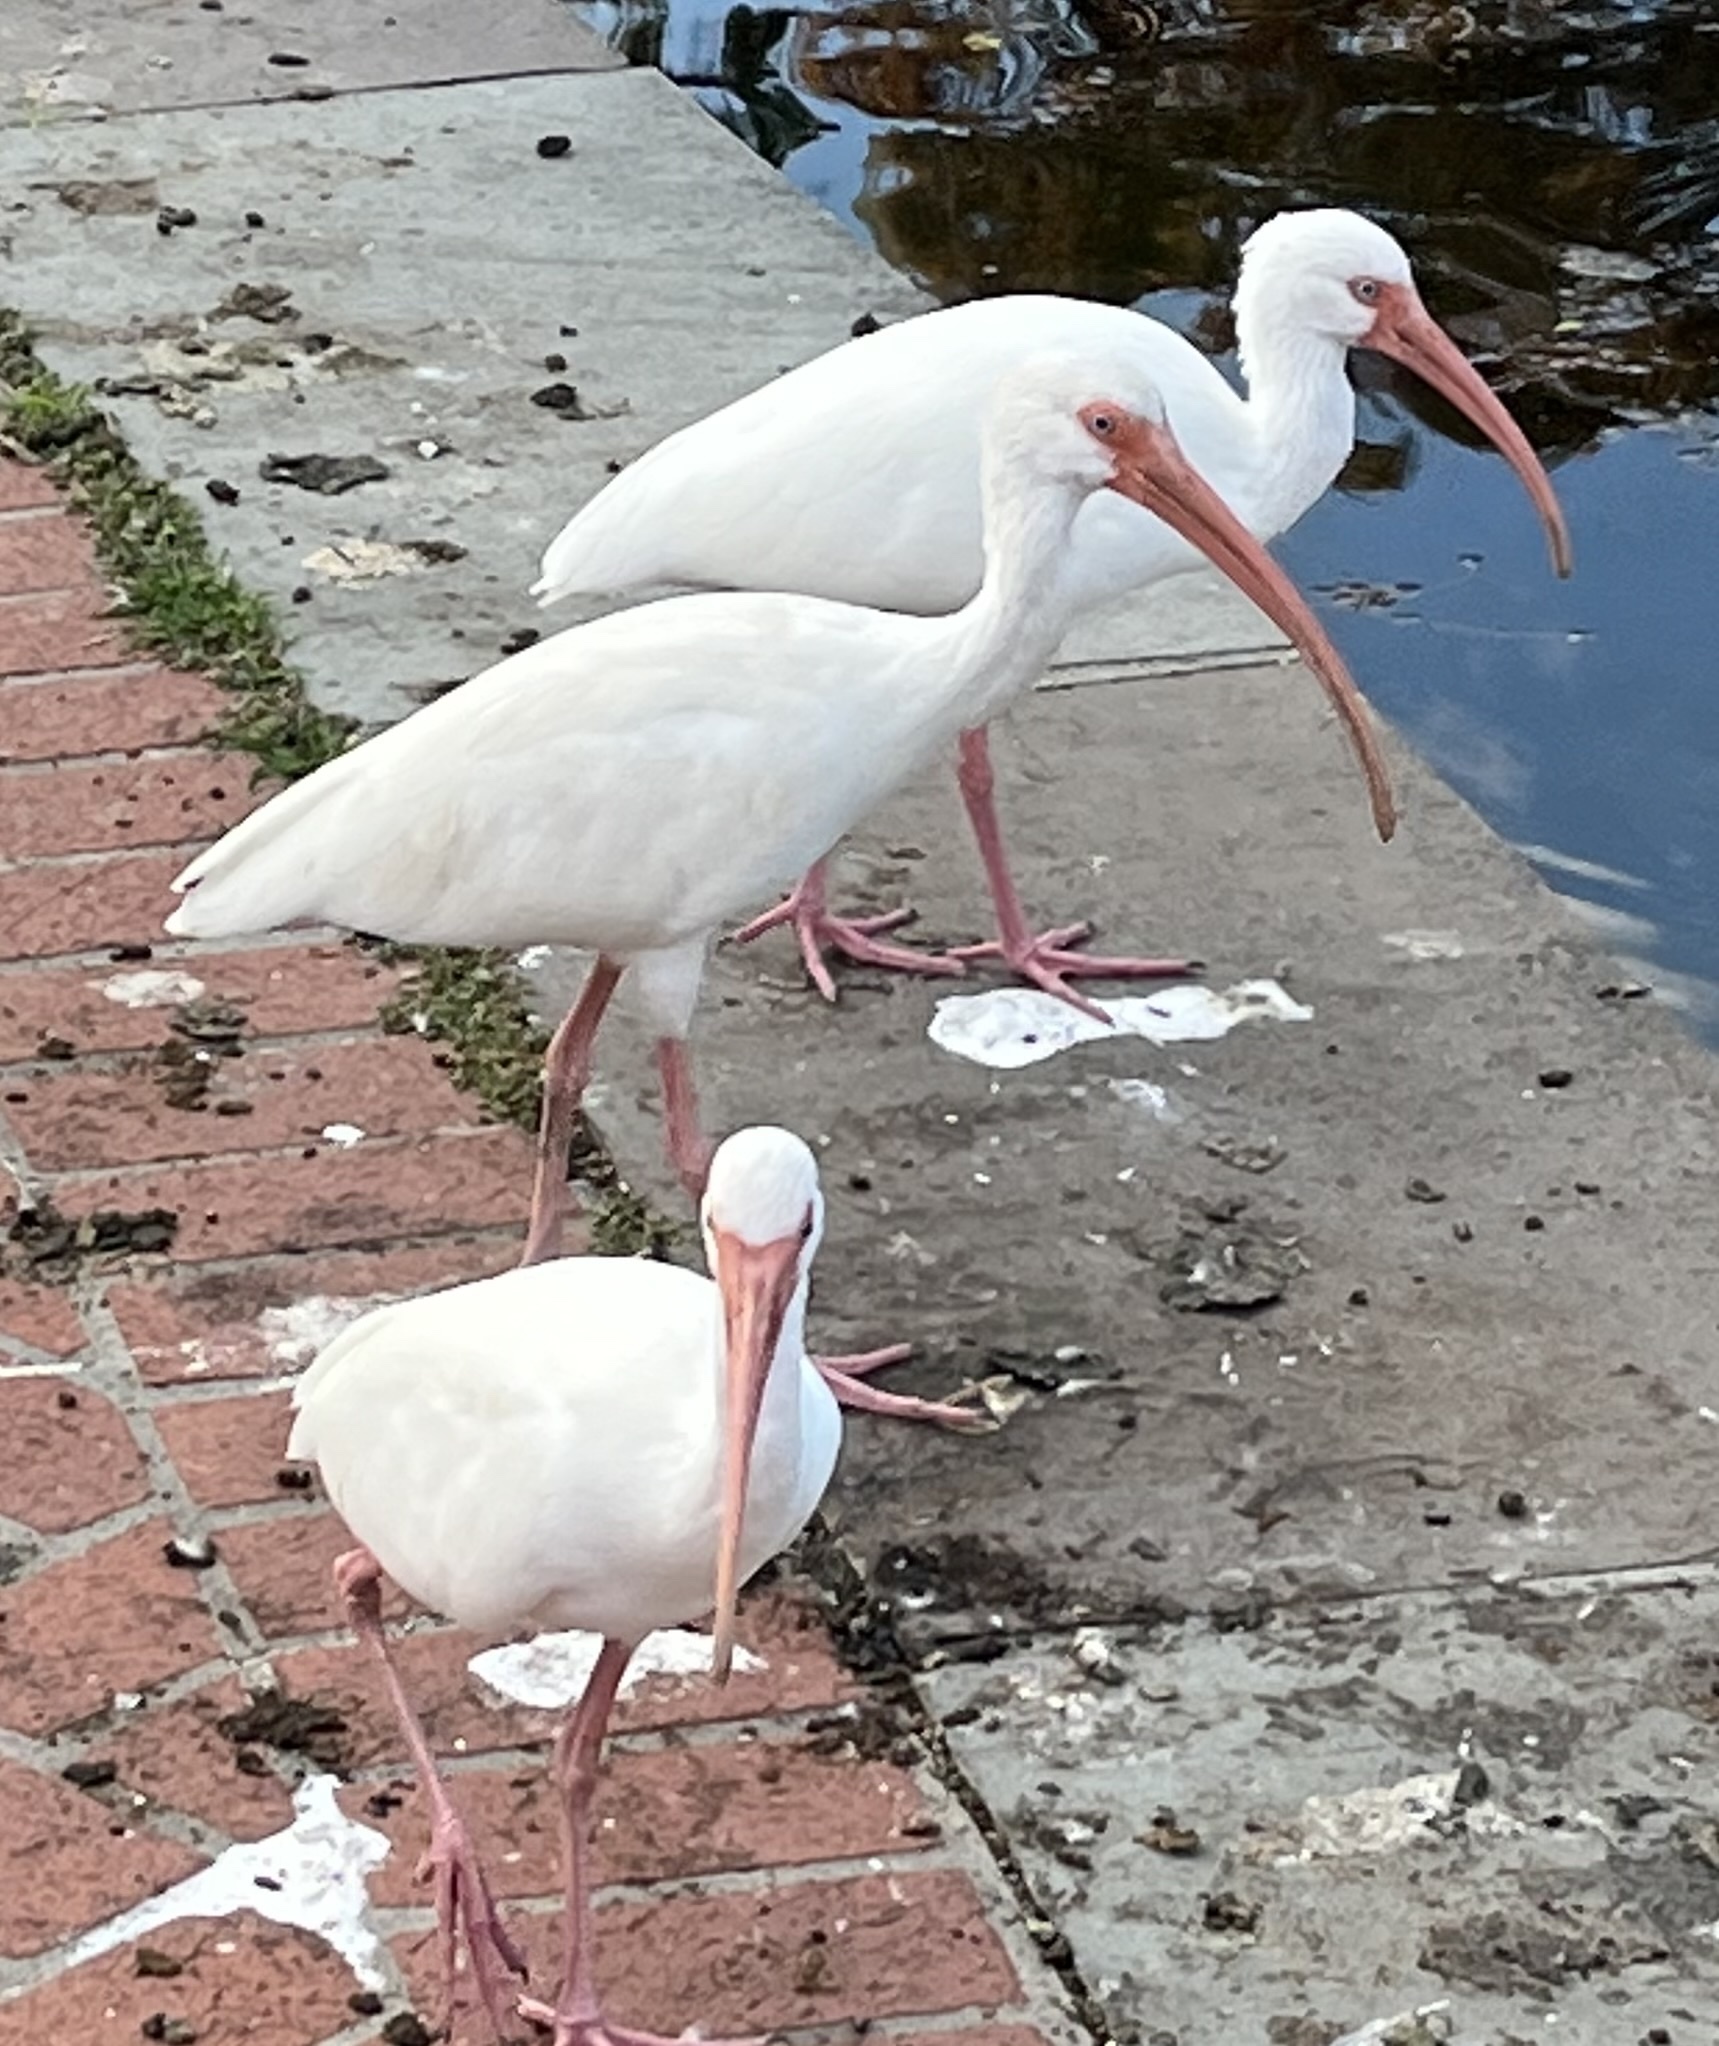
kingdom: Animalia
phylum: Chordata
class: Aves
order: Pelecaniformes
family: Threskiornithidae
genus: Eudocimus
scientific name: Eudocimus albus
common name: White ibis
